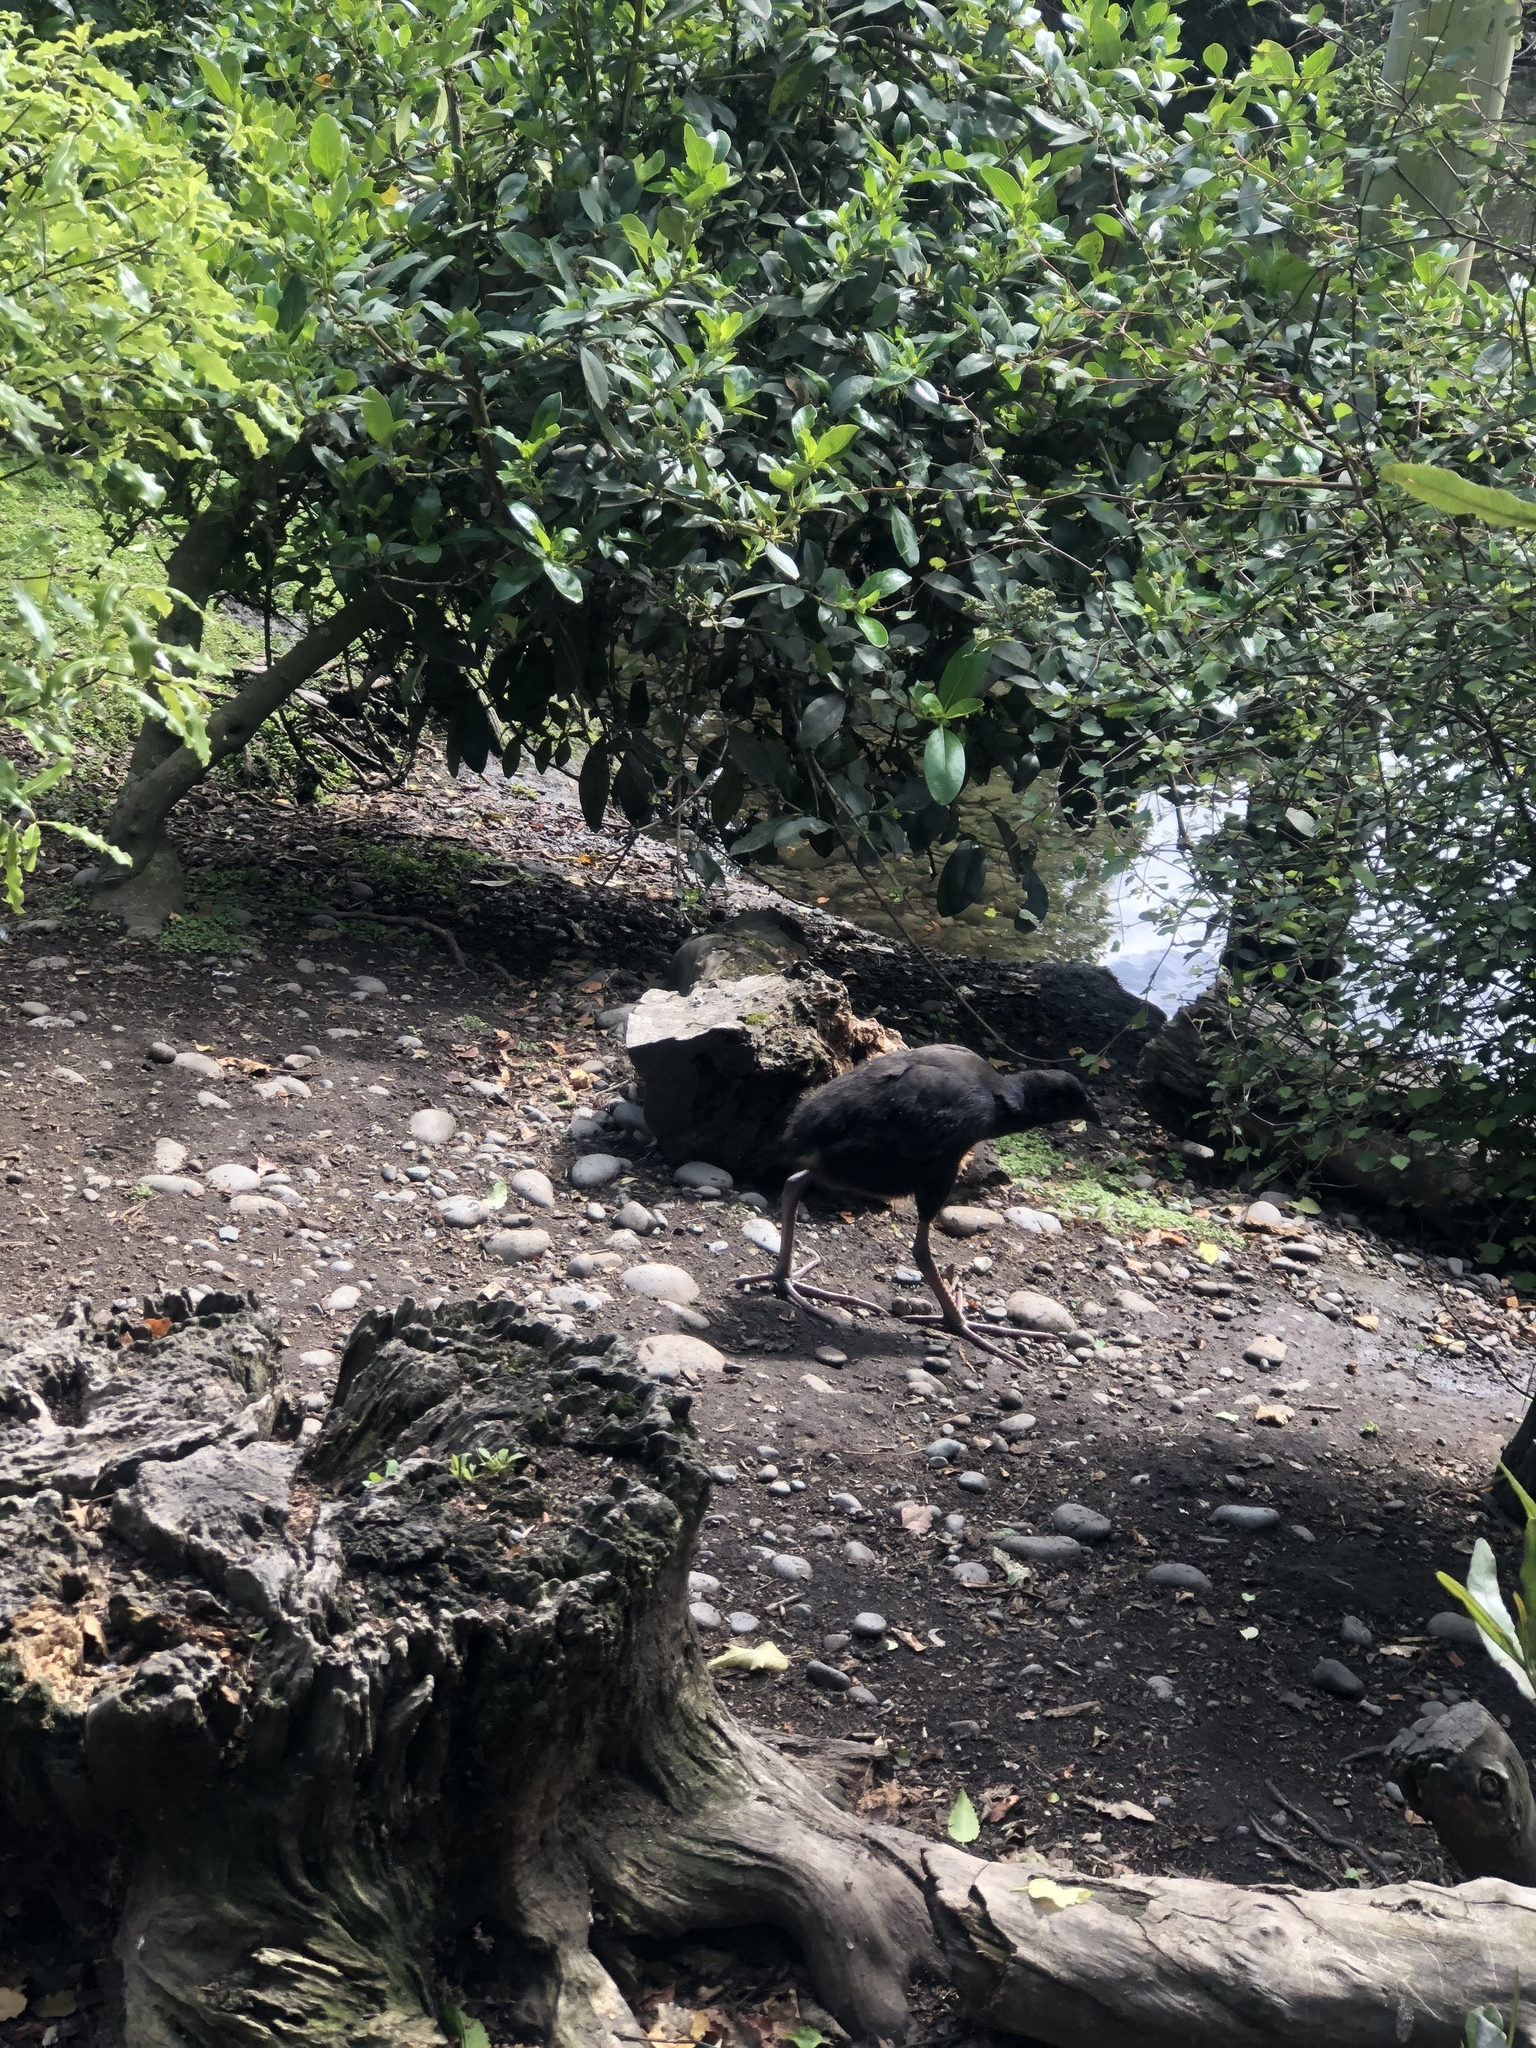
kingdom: Animalia
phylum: Chordata
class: Aves
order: Gruiformes
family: Rallidae
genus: Porphyrio
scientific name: Porphyrio melanotus
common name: Australasian swamphen
